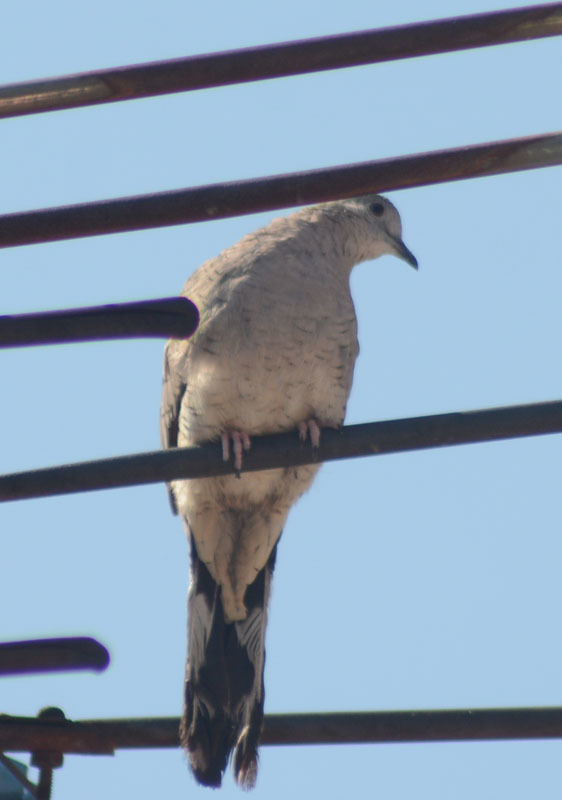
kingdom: Animalia
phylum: Chordata
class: Aves
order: Columbiformes
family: Columbidae
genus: Columbina
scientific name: Columbina inca
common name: Inca dove
